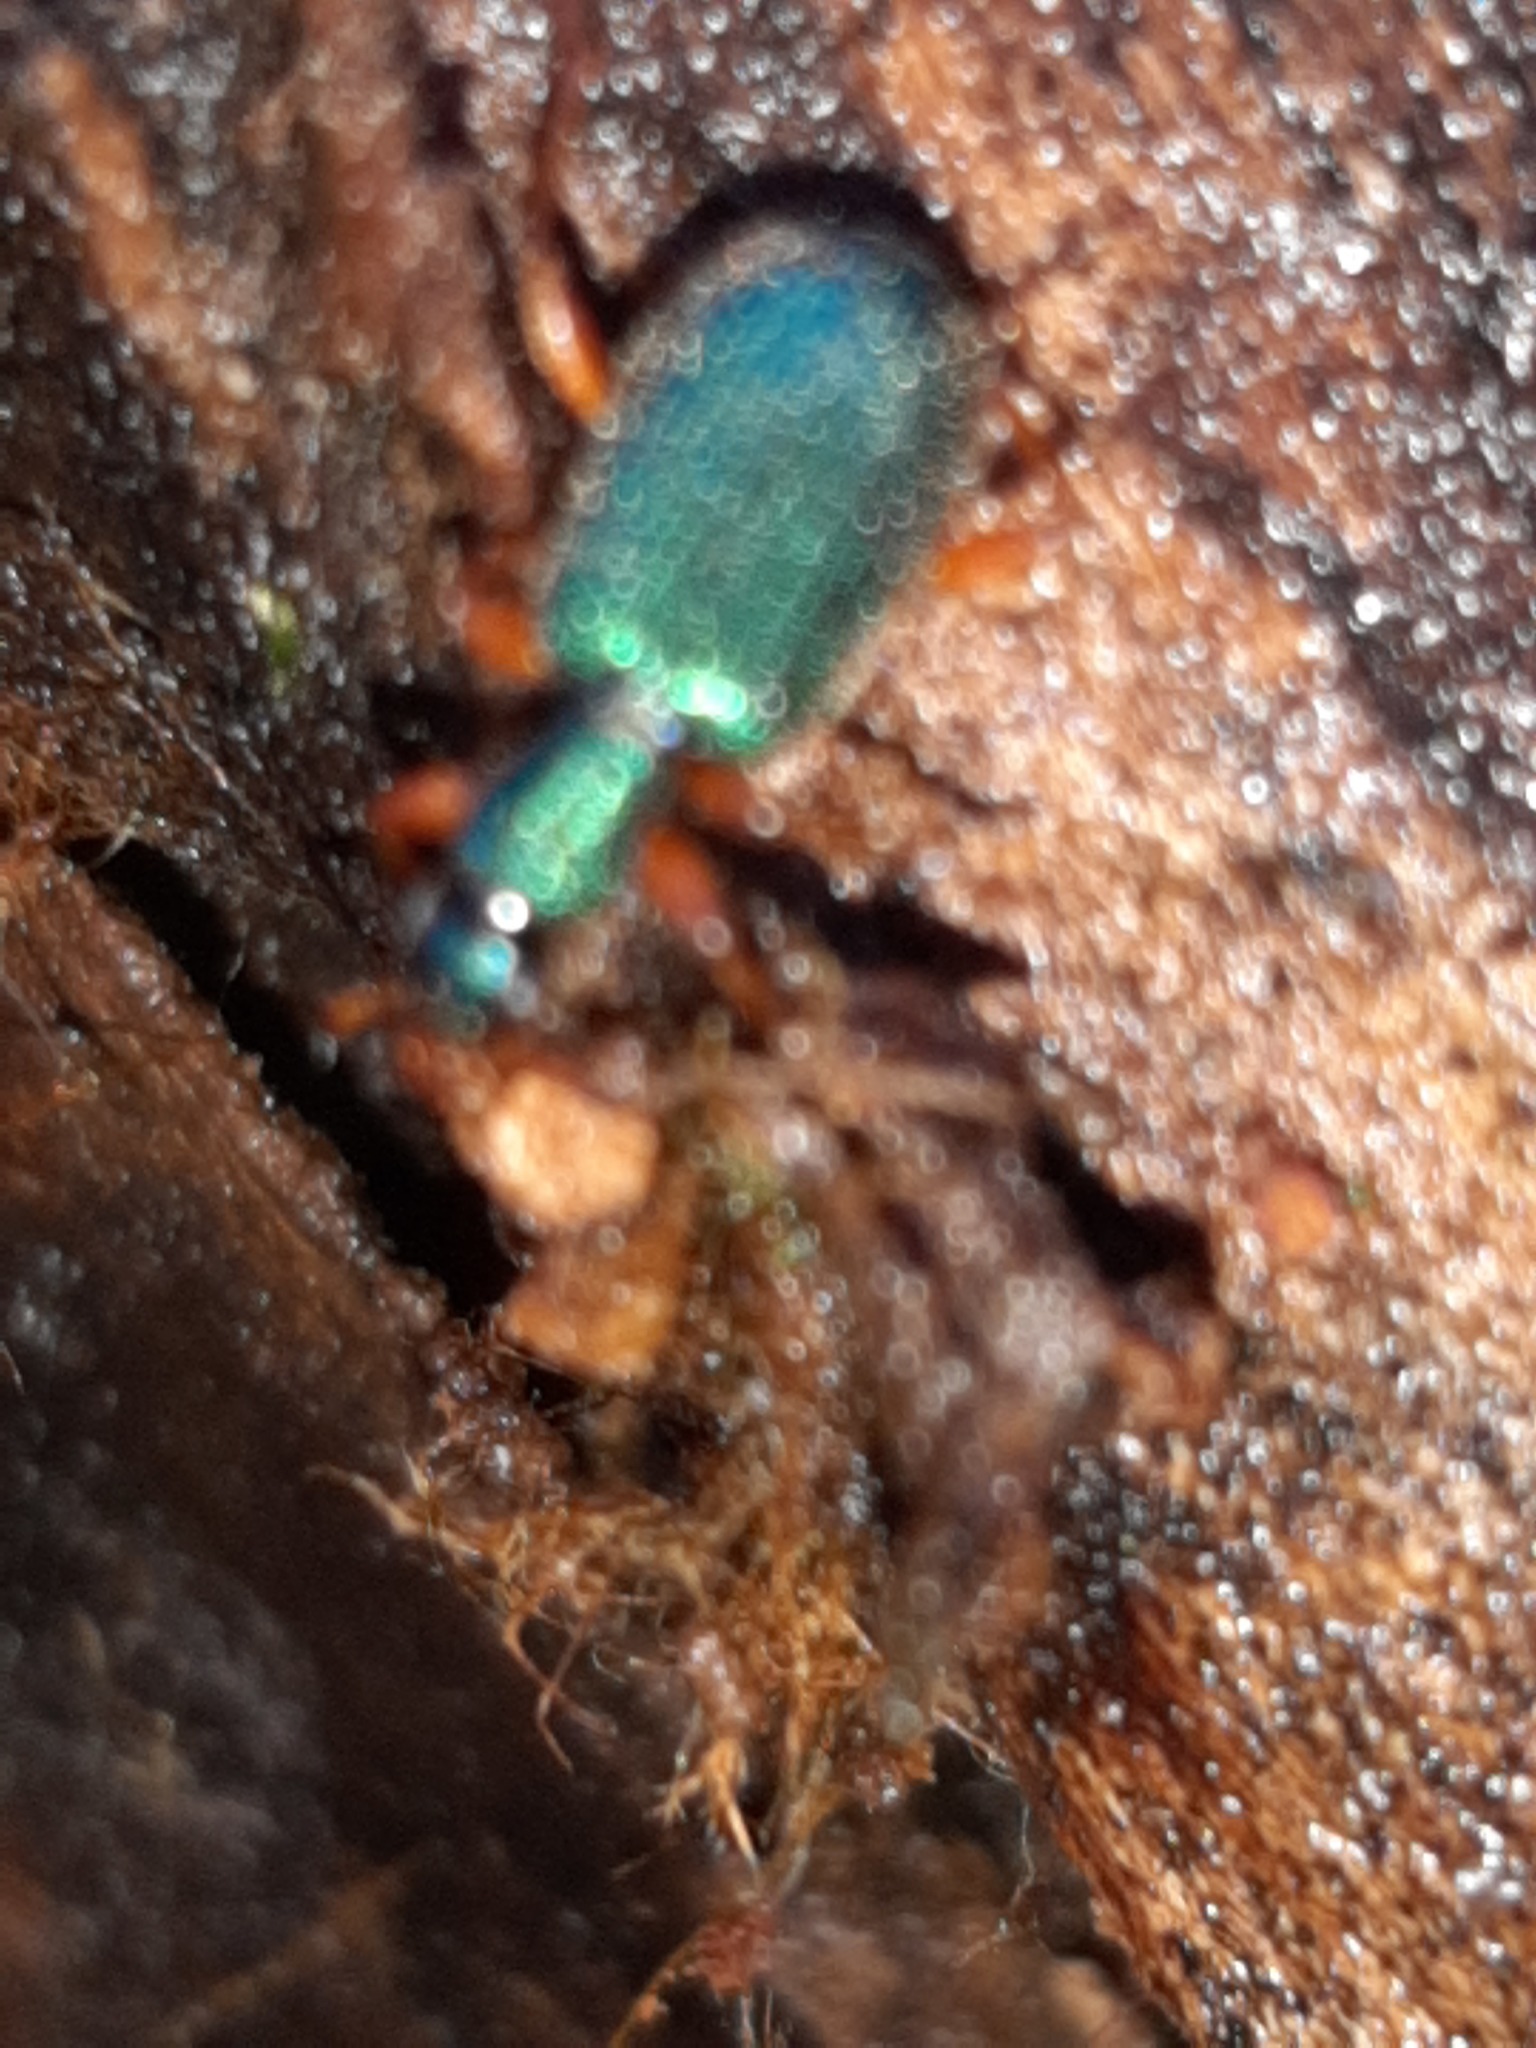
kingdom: Animalia
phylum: Arthropoda
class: Insecta
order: Coleoptera
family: Carabidae
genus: Drypta
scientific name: Drypta dentata
